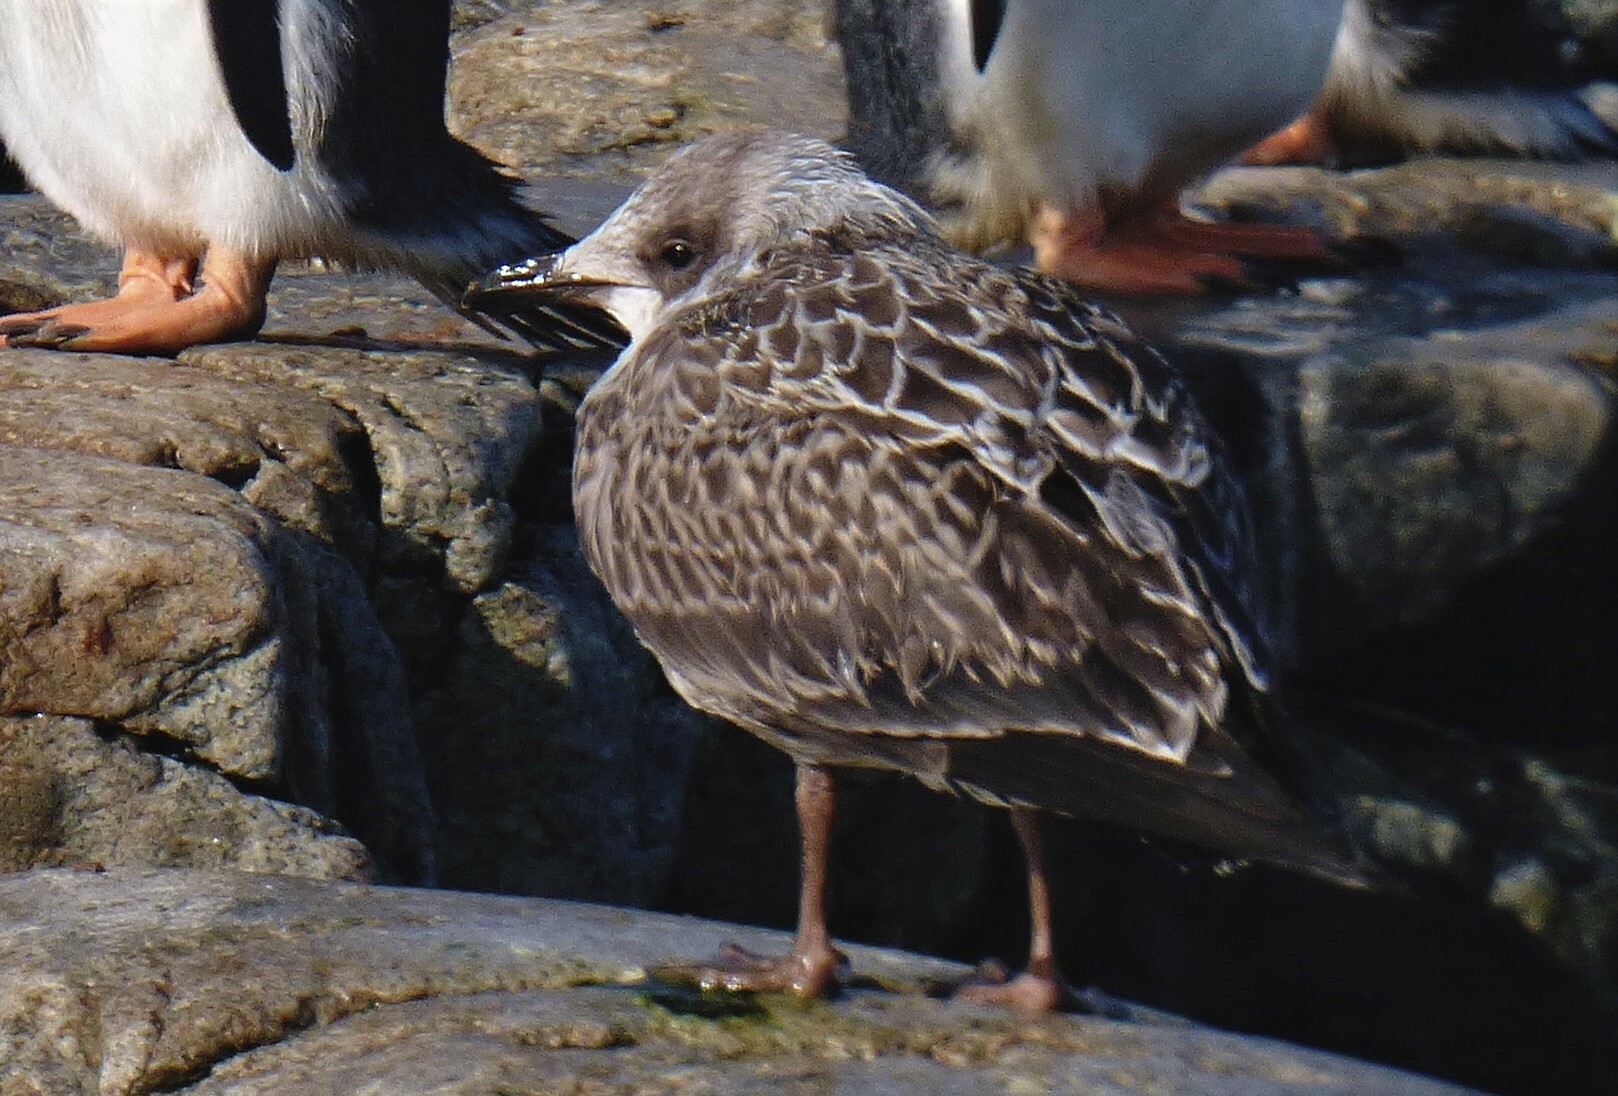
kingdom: Animalia
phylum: Chordata
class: Aves
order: Charadriiformes
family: Laridae
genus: Larus
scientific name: Larus dominicanus
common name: Kelp gull
